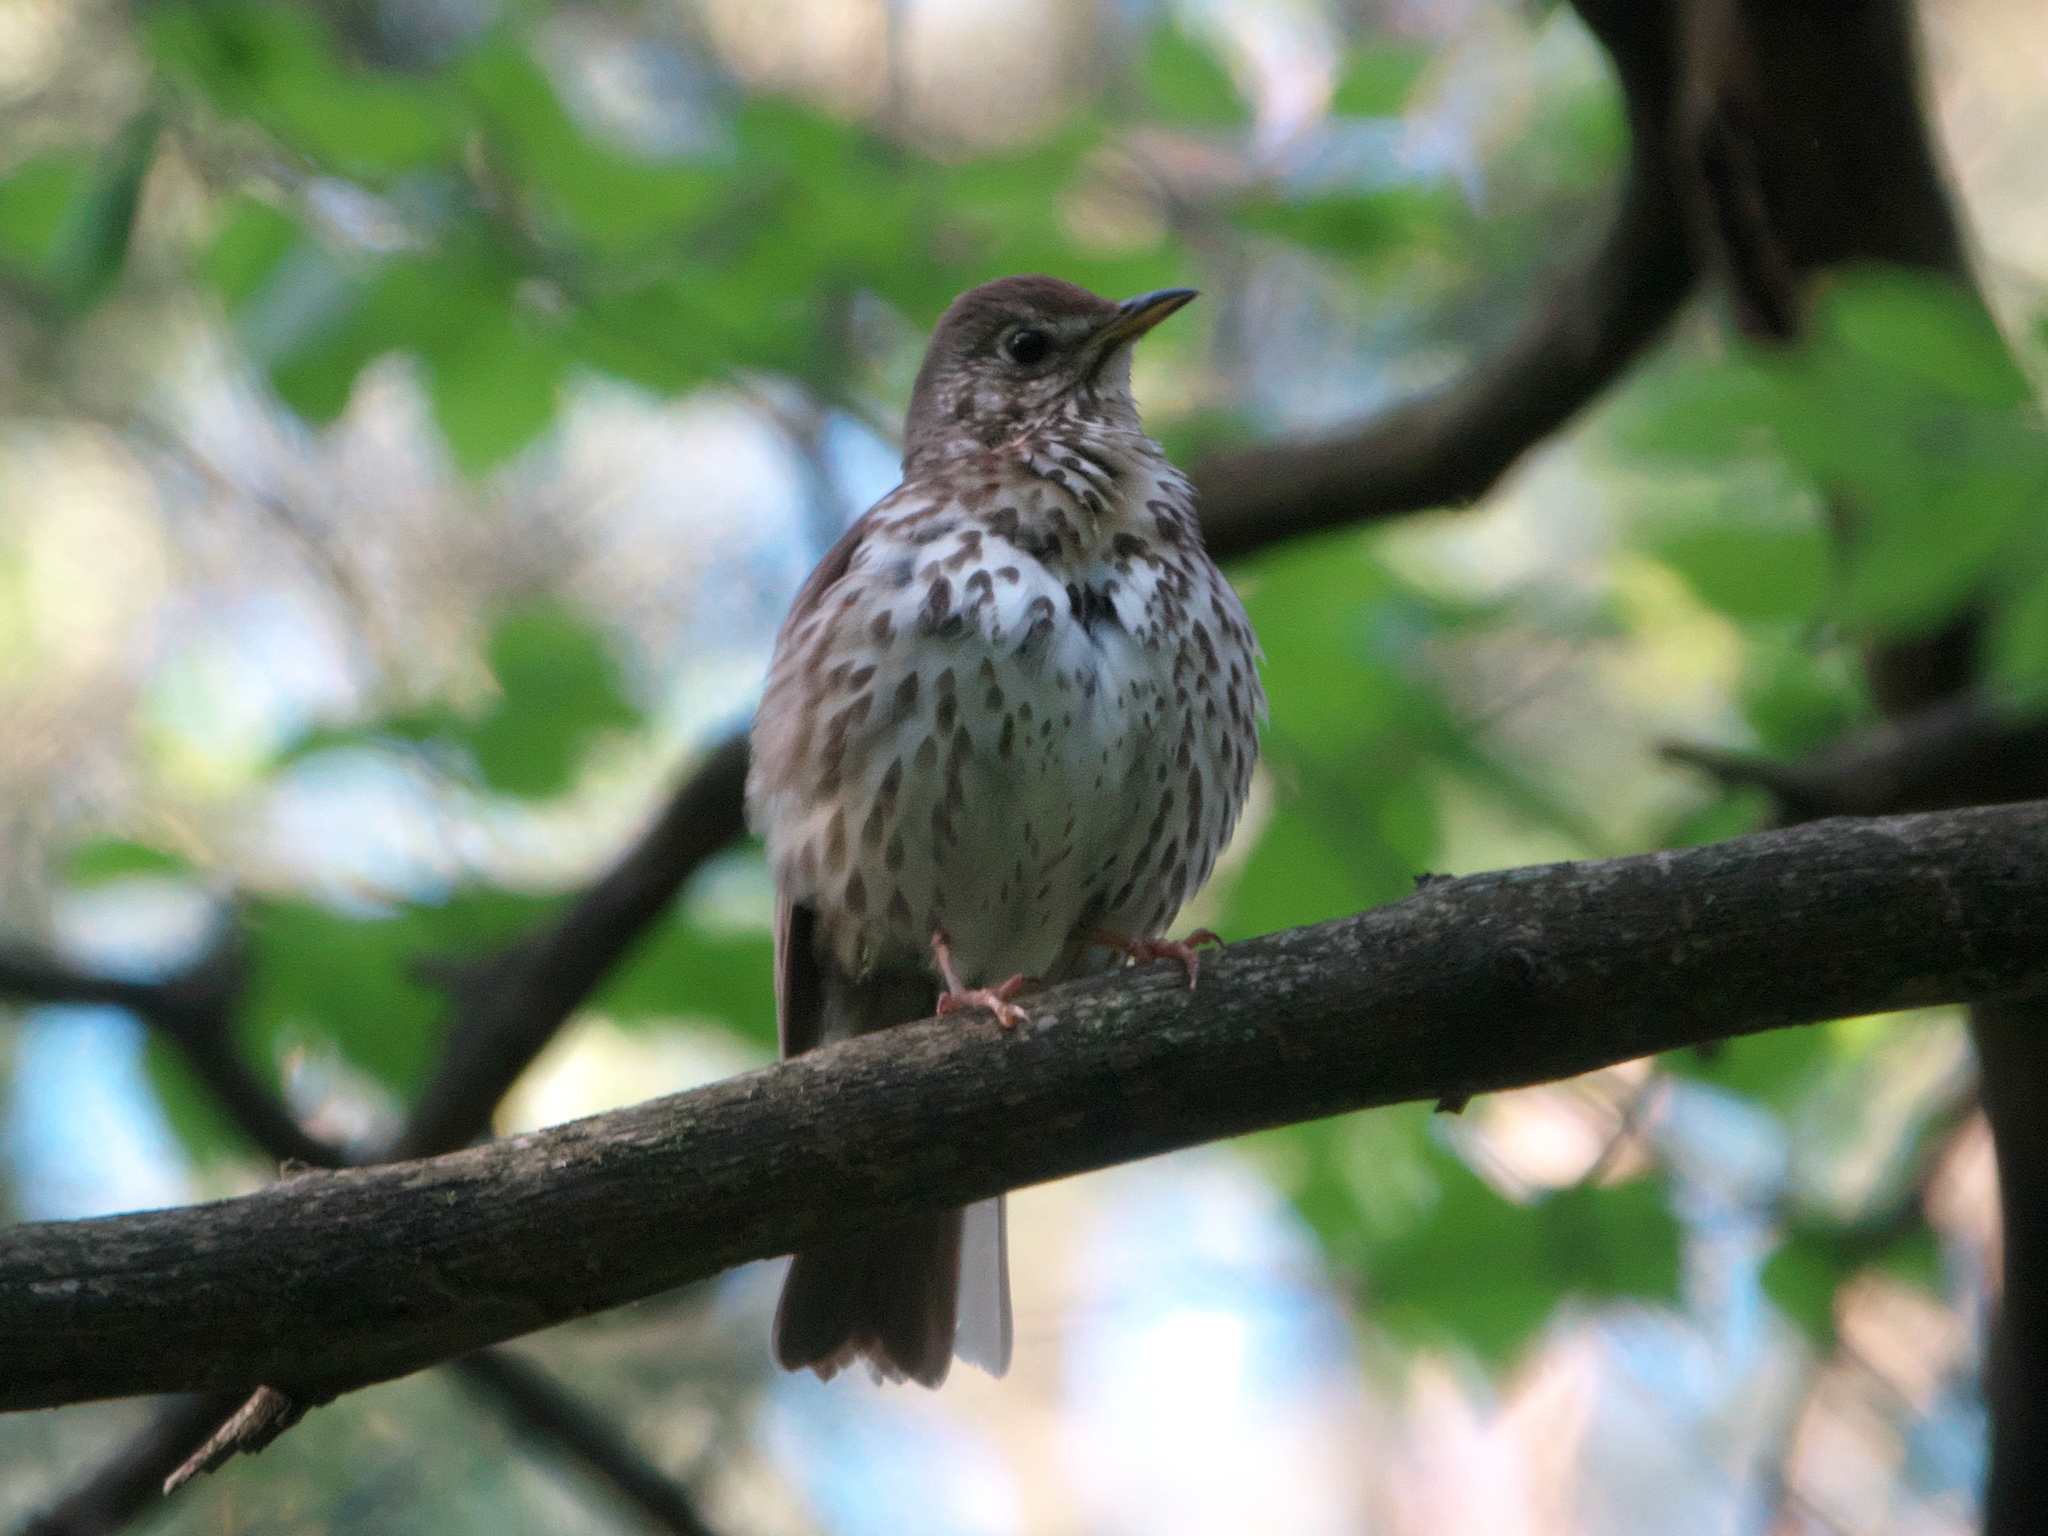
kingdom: Animalia
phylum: Chordata
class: Aves
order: Passeriformes
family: Turdidae
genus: Turdus
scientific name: Turdus philomelos
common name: Song thrush
